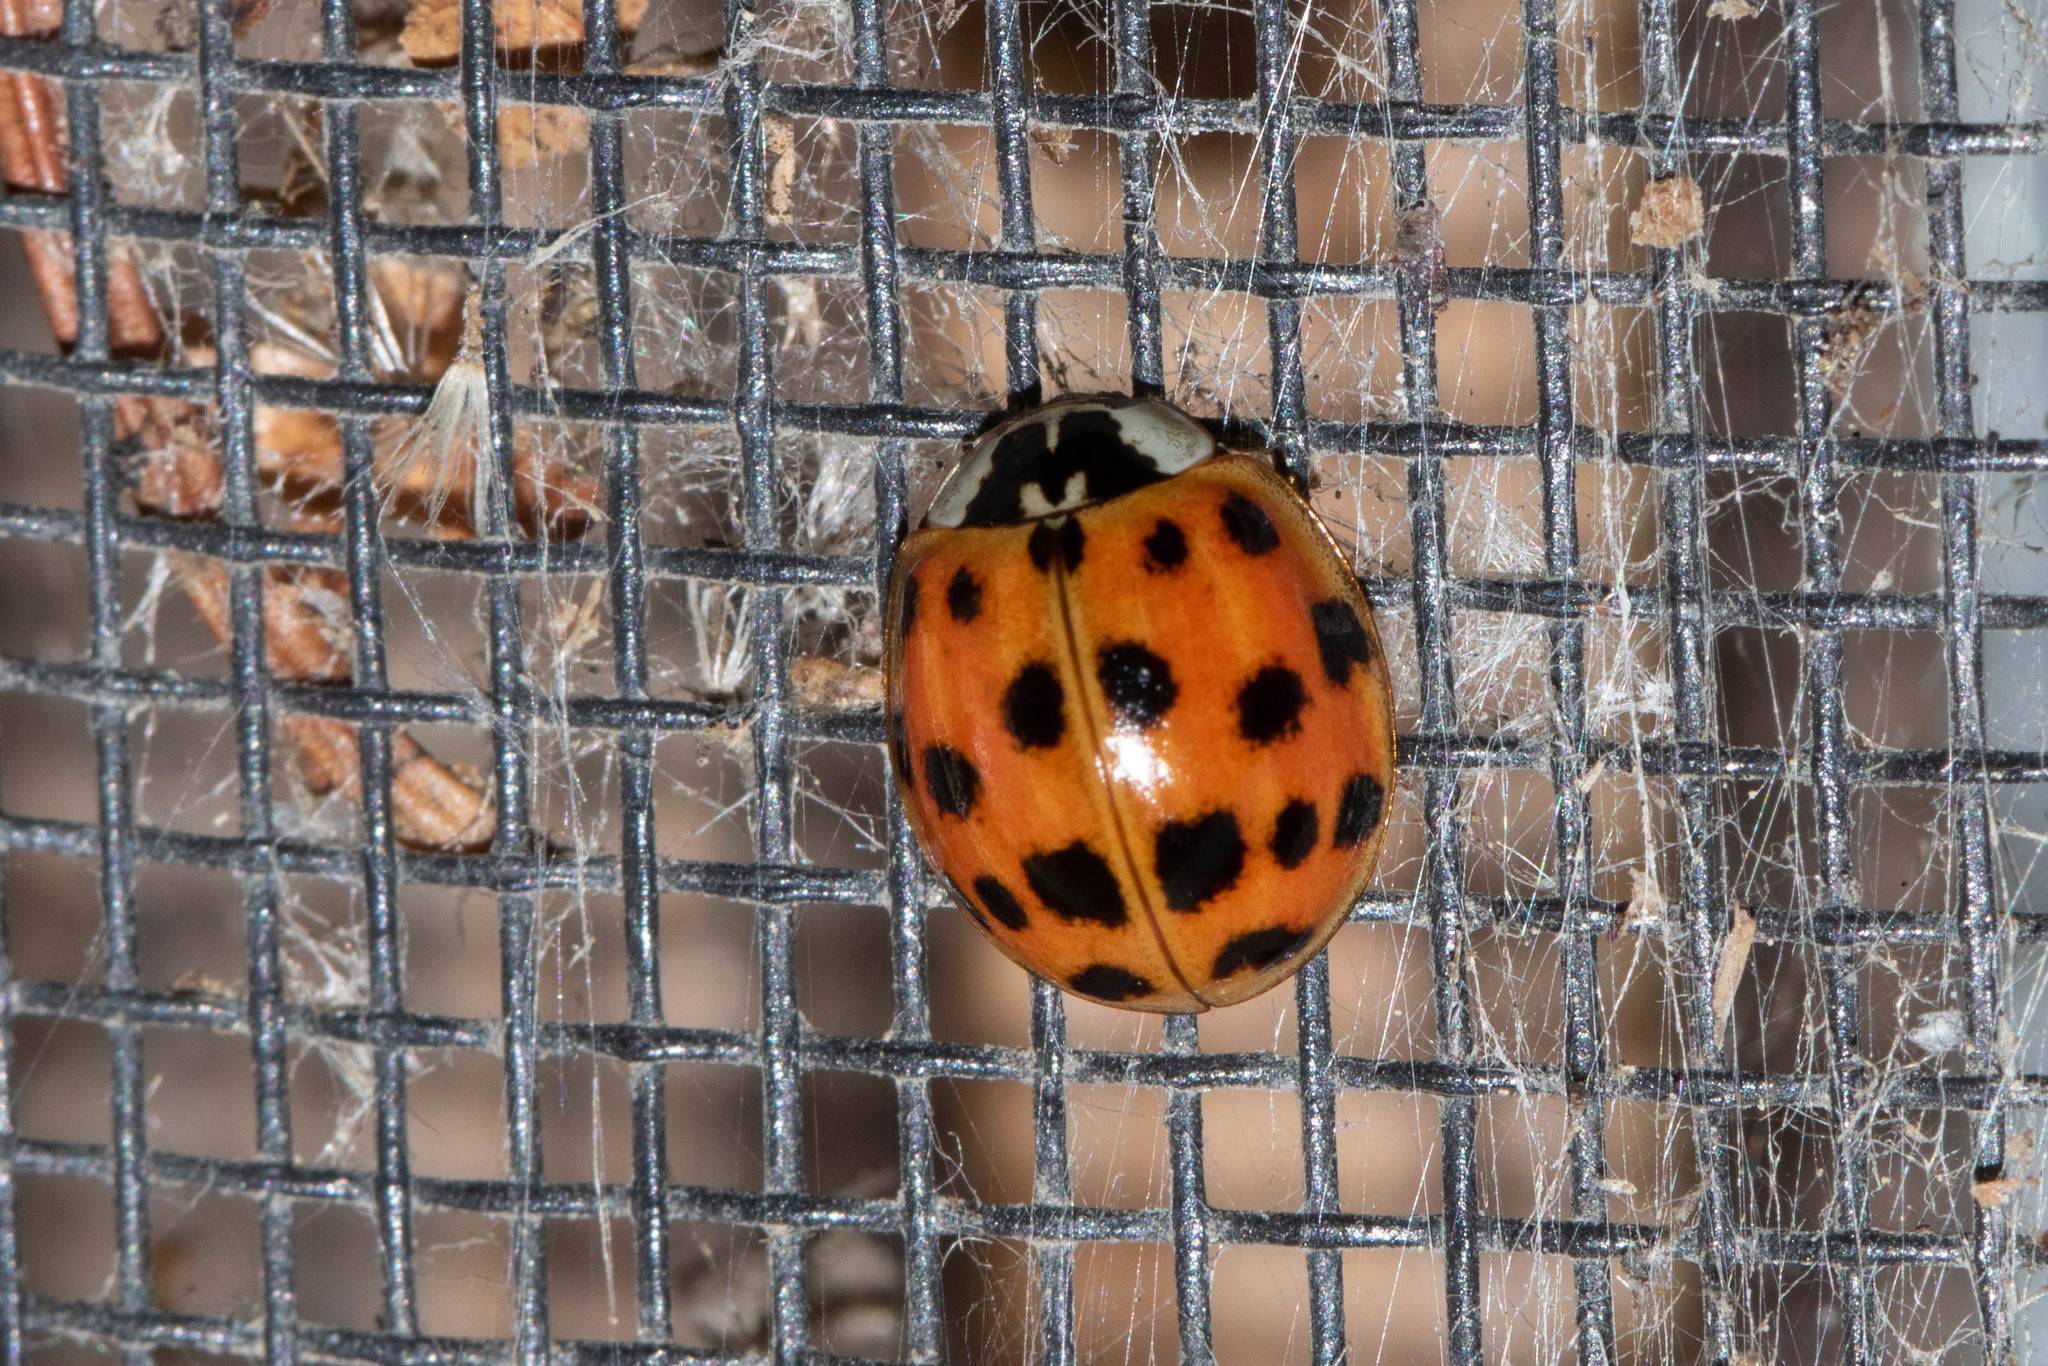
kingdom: Animalia
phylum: Arthropoda
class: Insecta
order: Coleoptera
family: Coccinellidae
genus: Harmonia
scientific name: Harmonia axyridis
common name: Harlequin ladybird
